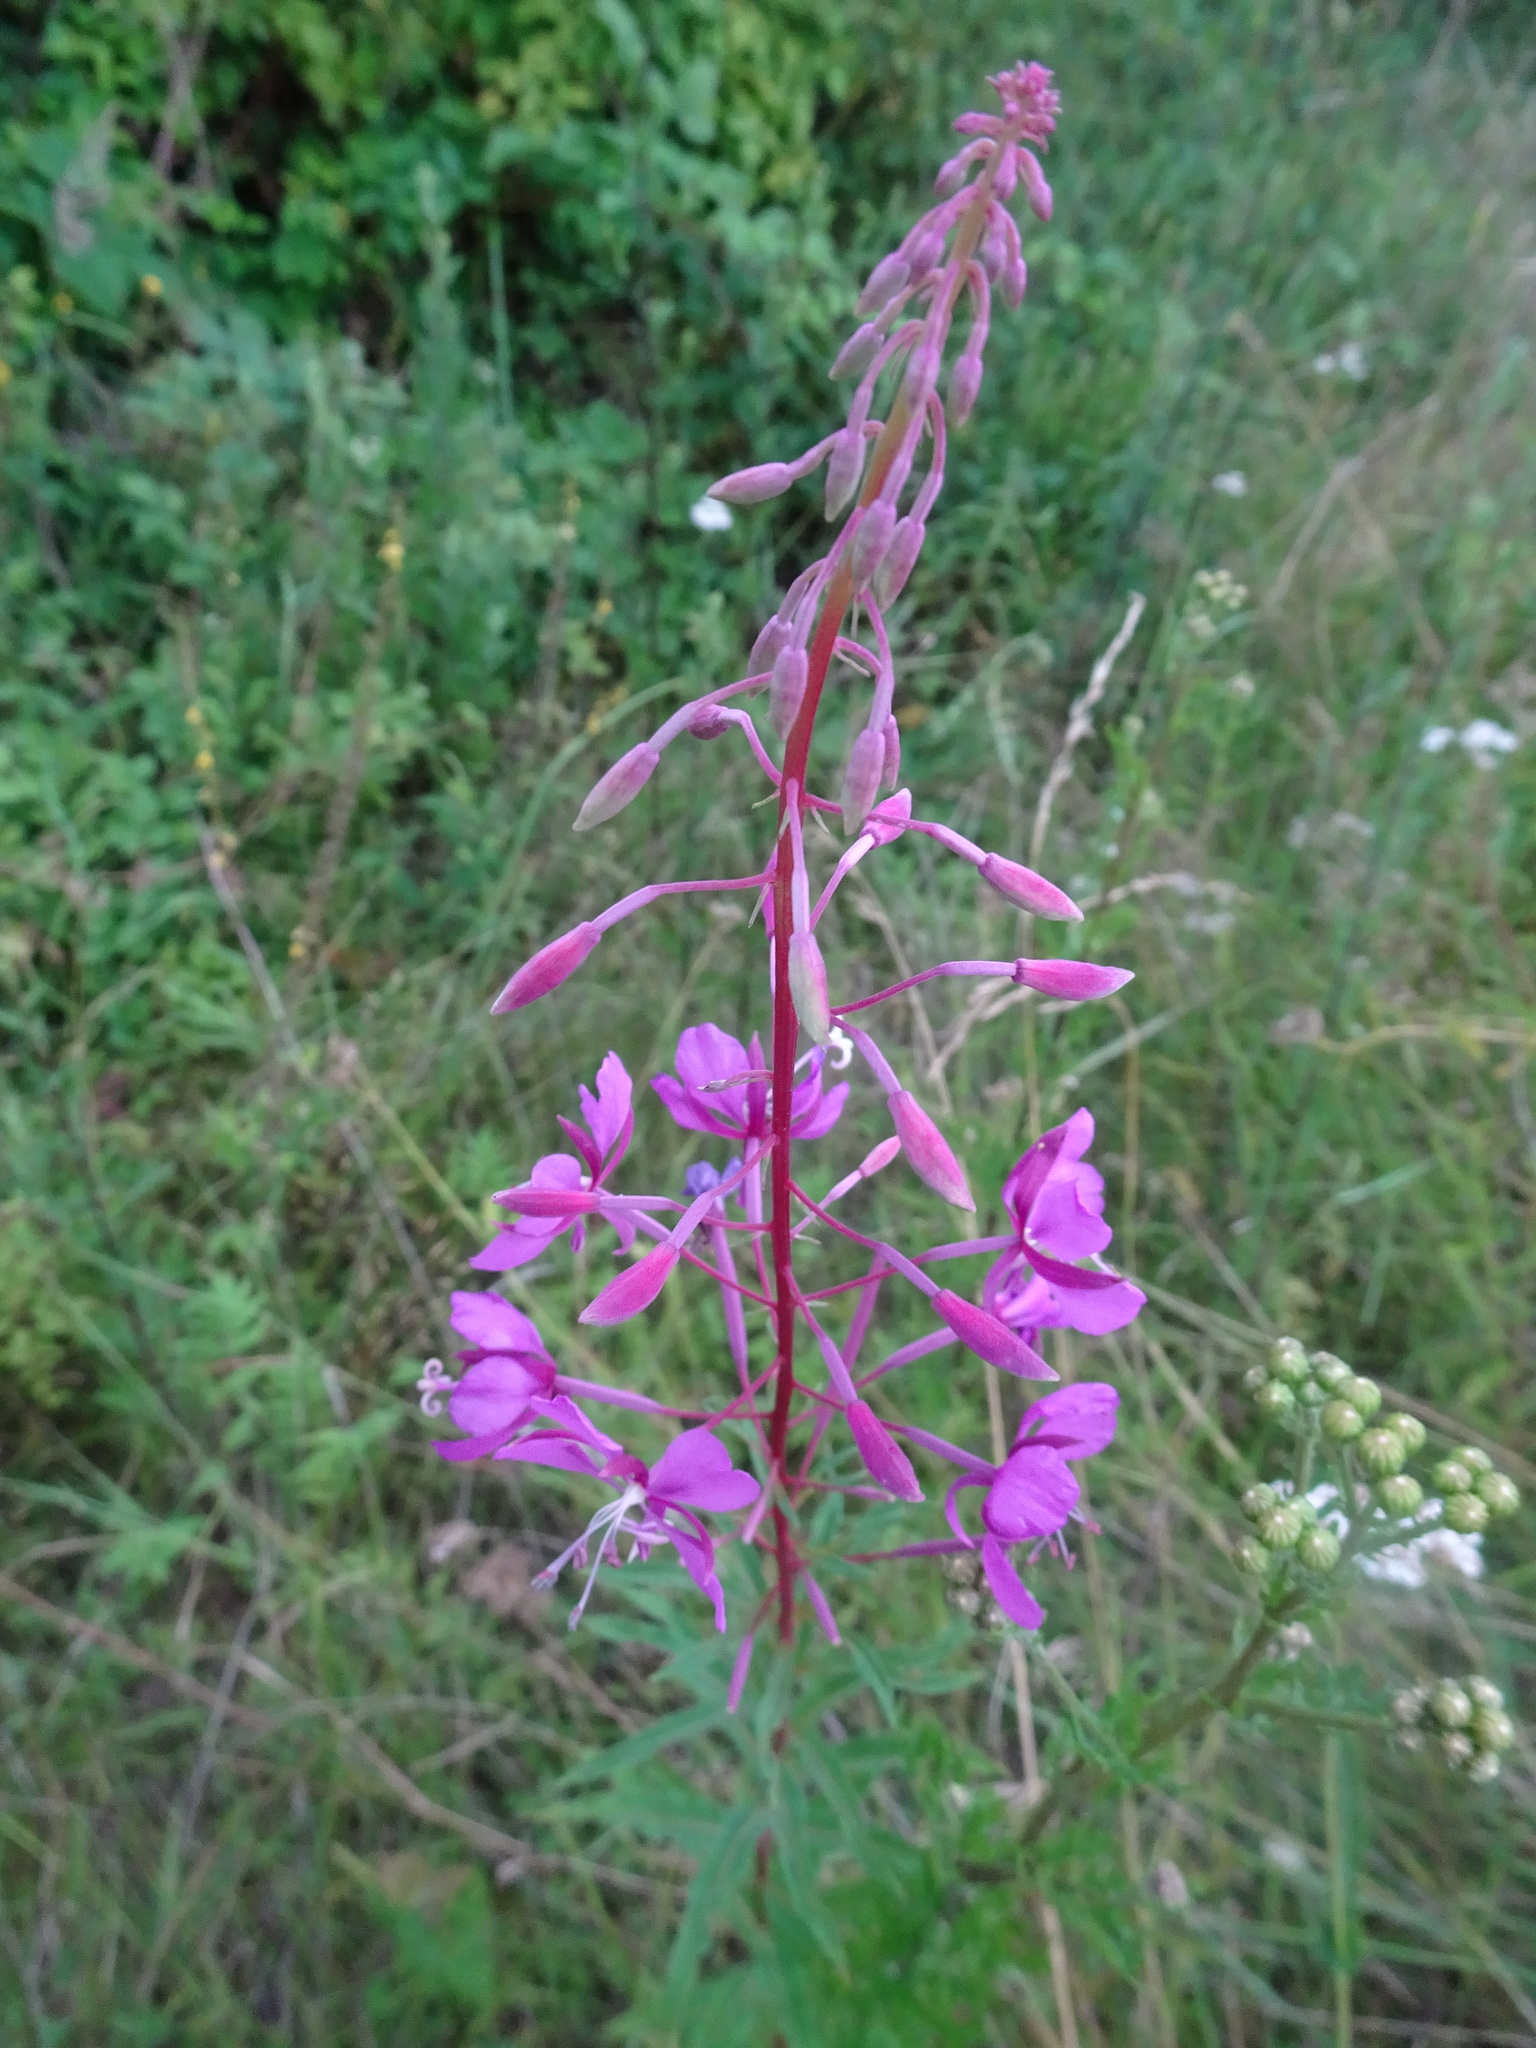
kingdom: Plantae
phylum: Tracheophyta
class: Magnoliopsida
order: Myrtales
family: Onagraceae
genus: Chamaenerion
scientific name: Chamaenerion angustifolium
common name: Fireweed
